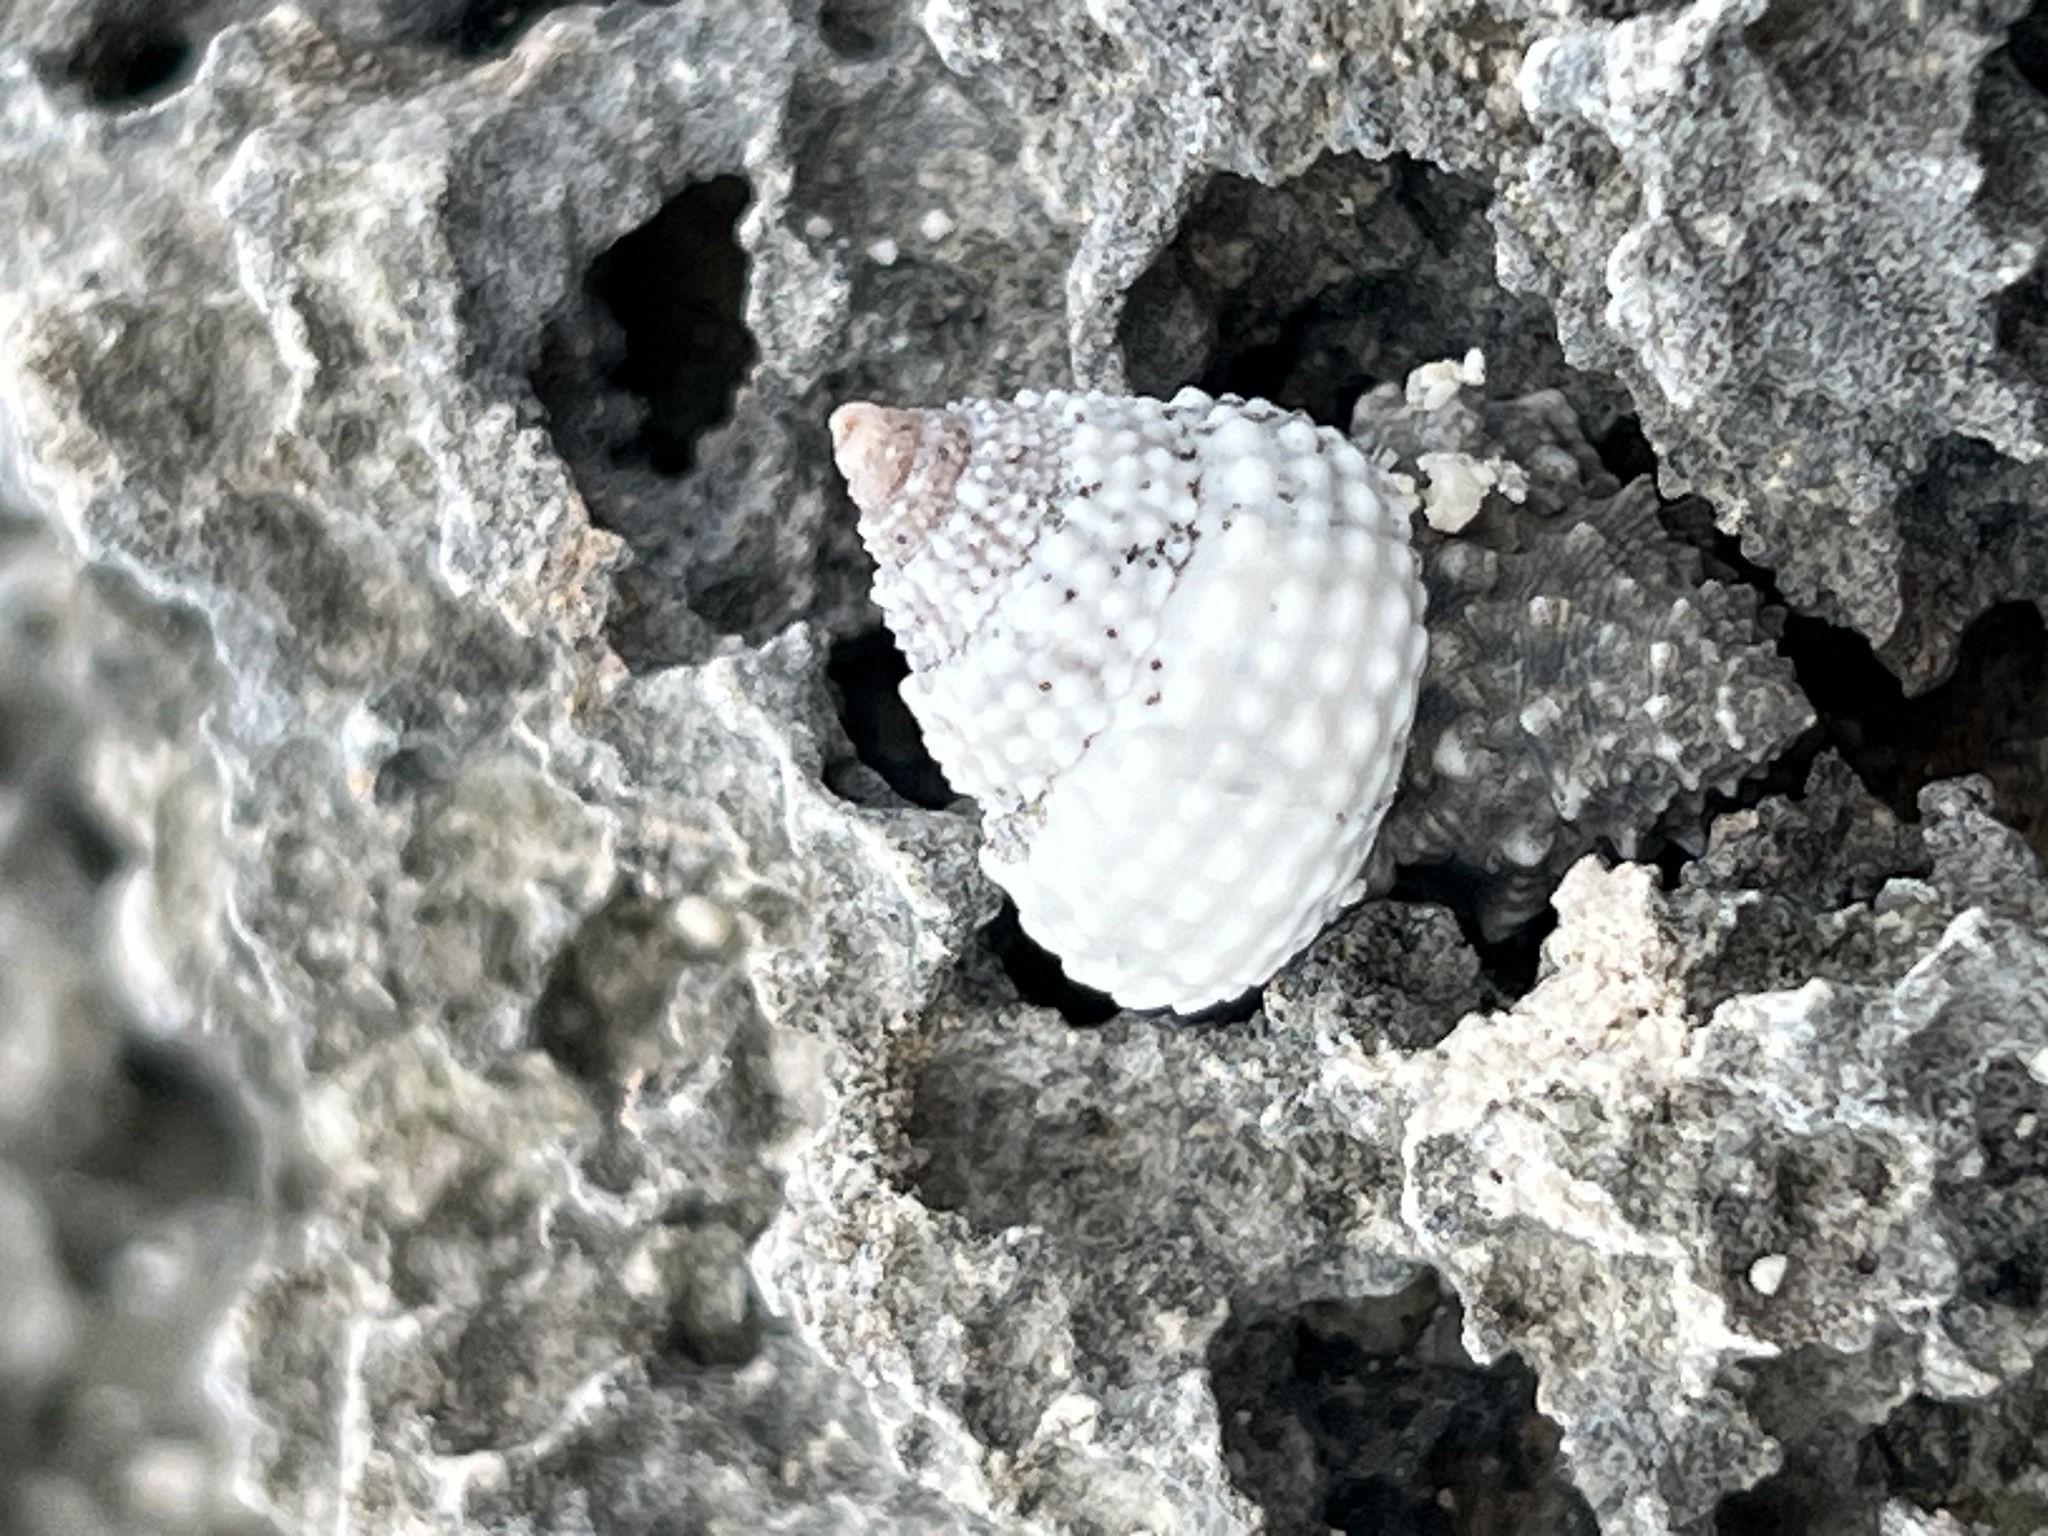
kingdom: Animalia
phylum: Mollusca
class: Gastropoda
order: Littorinimorpha
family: Littorinidae
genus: Cenchritis
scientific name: Cenchritis muricatus
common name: Beaded periwinkle
